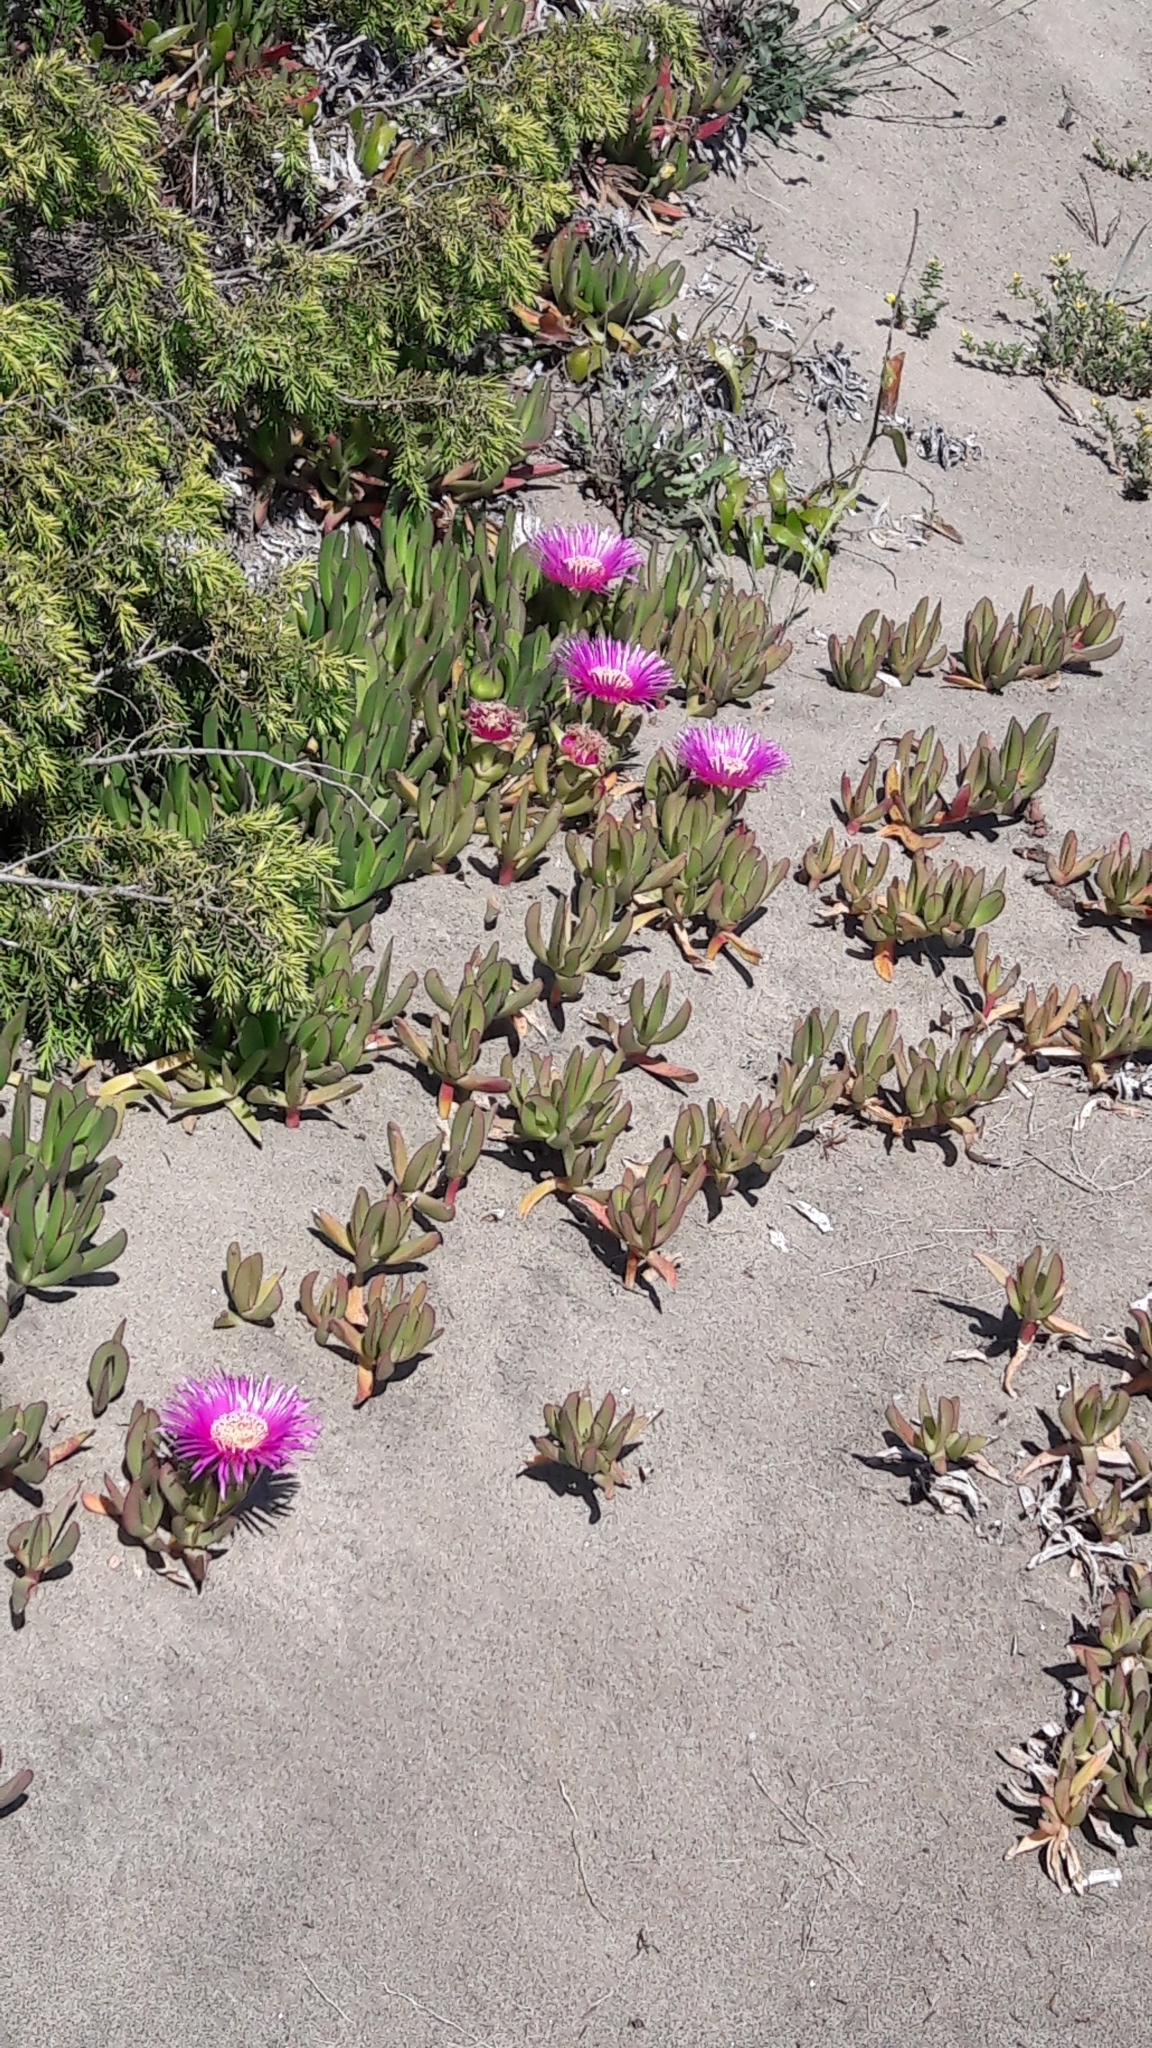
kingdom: Plantae
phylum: Tracheophyta
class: Magnoliopsida
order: Caryophyllales
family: Aizoaceae
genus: Carpobrotus
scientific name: Carpobrotus edulis
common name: Hottentot-fig
